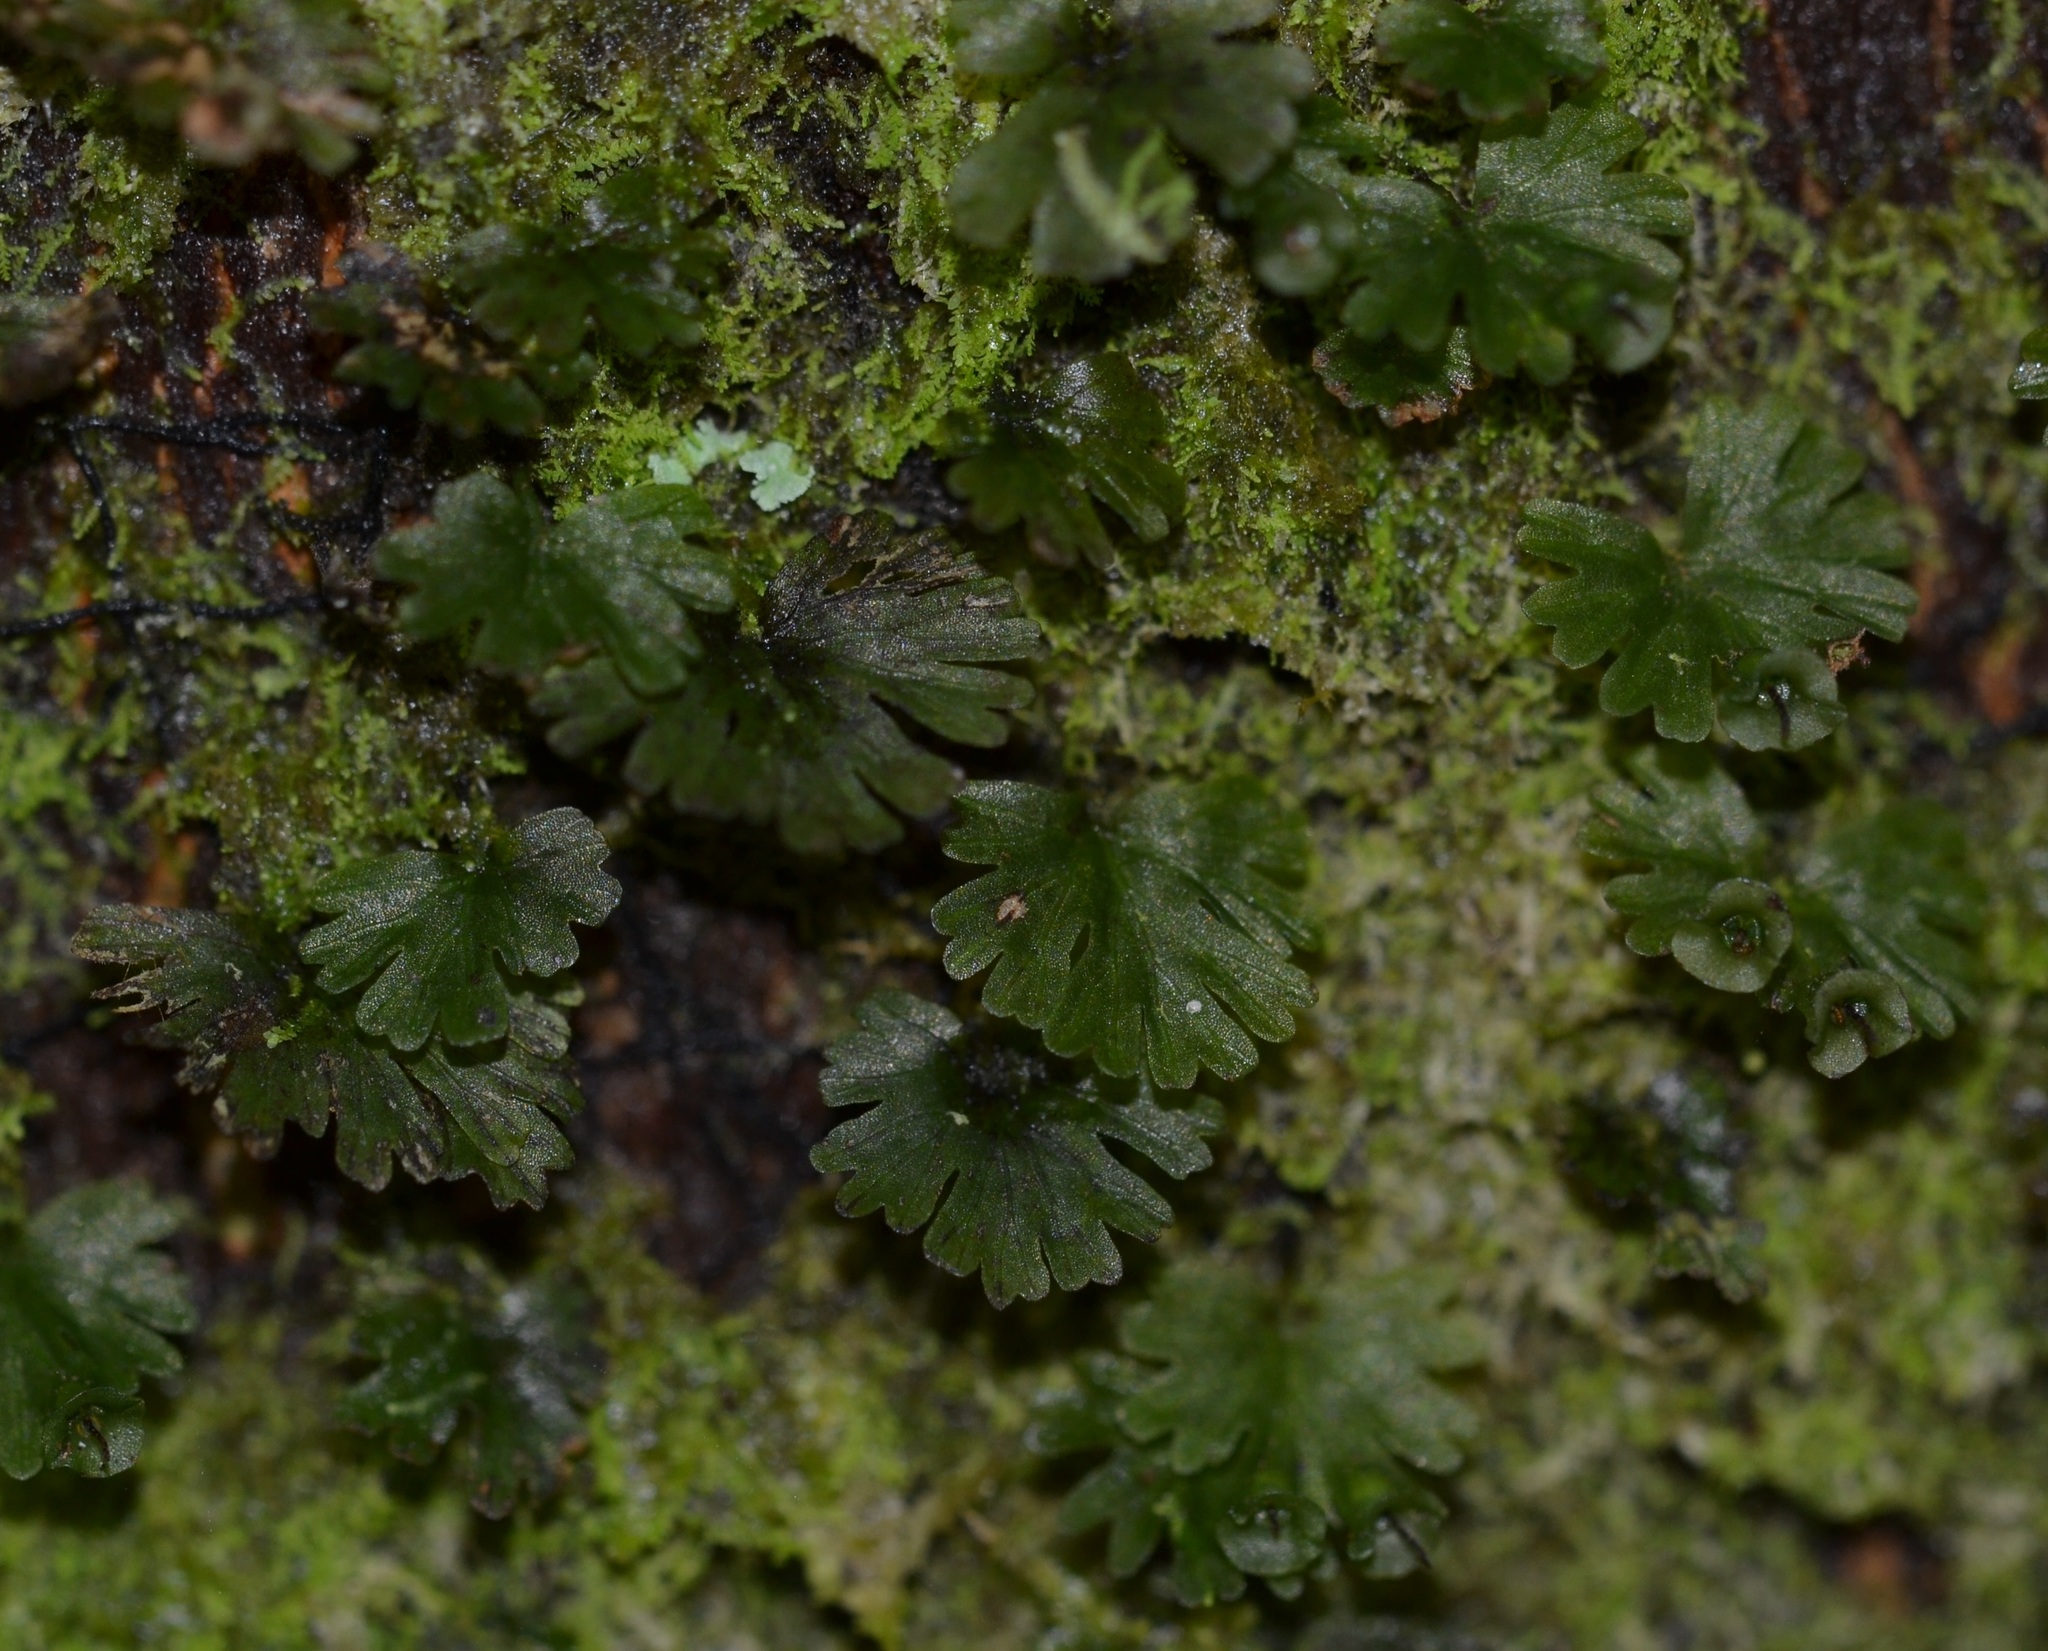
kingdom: Plantae
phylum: Tracheophyta
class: Polypodiopsida
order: Hymenophyllales
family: Hymenophyllaceae
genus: Crepidomanes
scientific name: Crepidomanes parvulum
